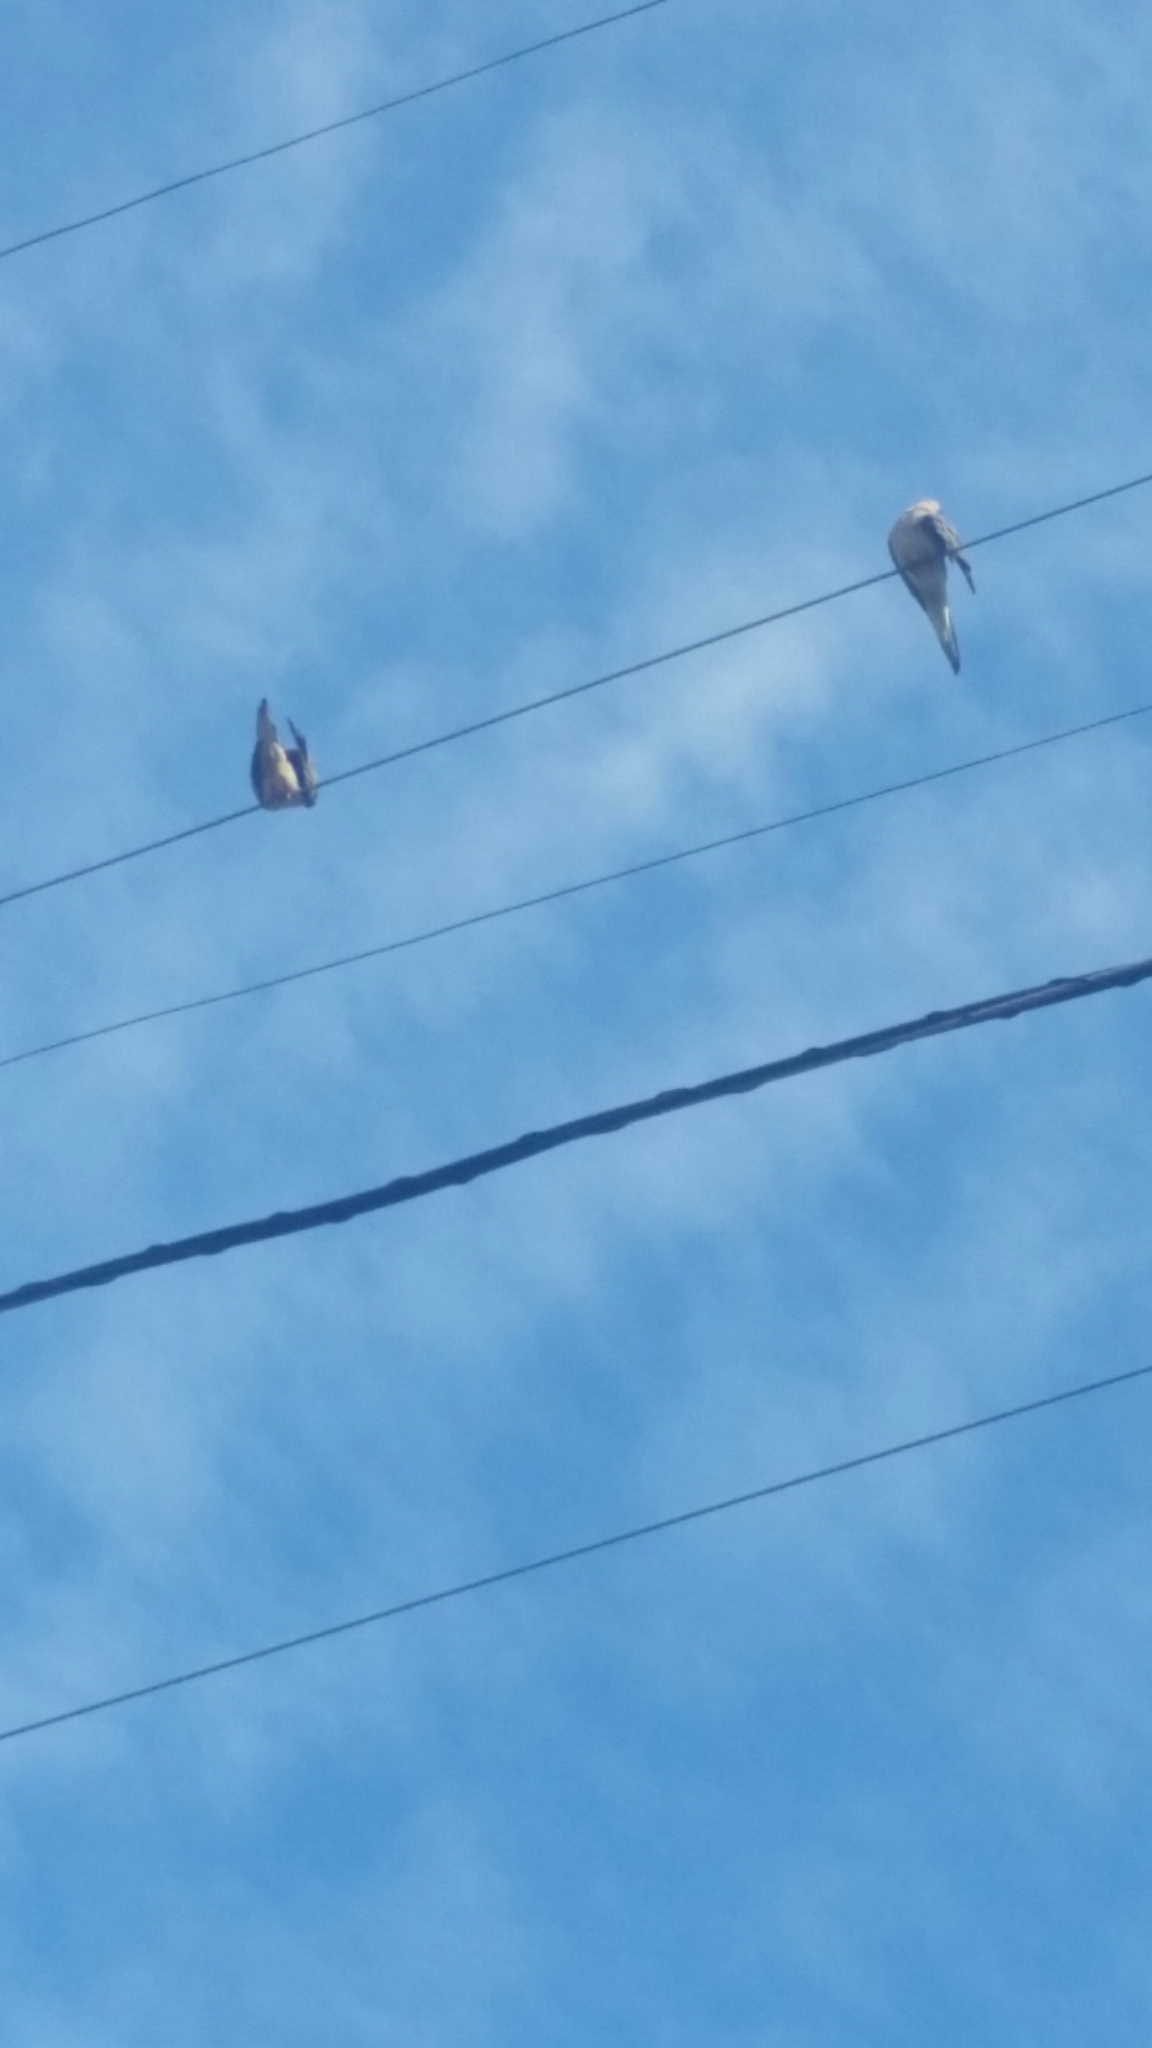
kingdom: Animalia
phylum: Chordata
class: Aves
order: Columbiformes
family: Columbidae
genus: Zenaida
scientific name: Zenaida macroura
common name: Mourning dove
